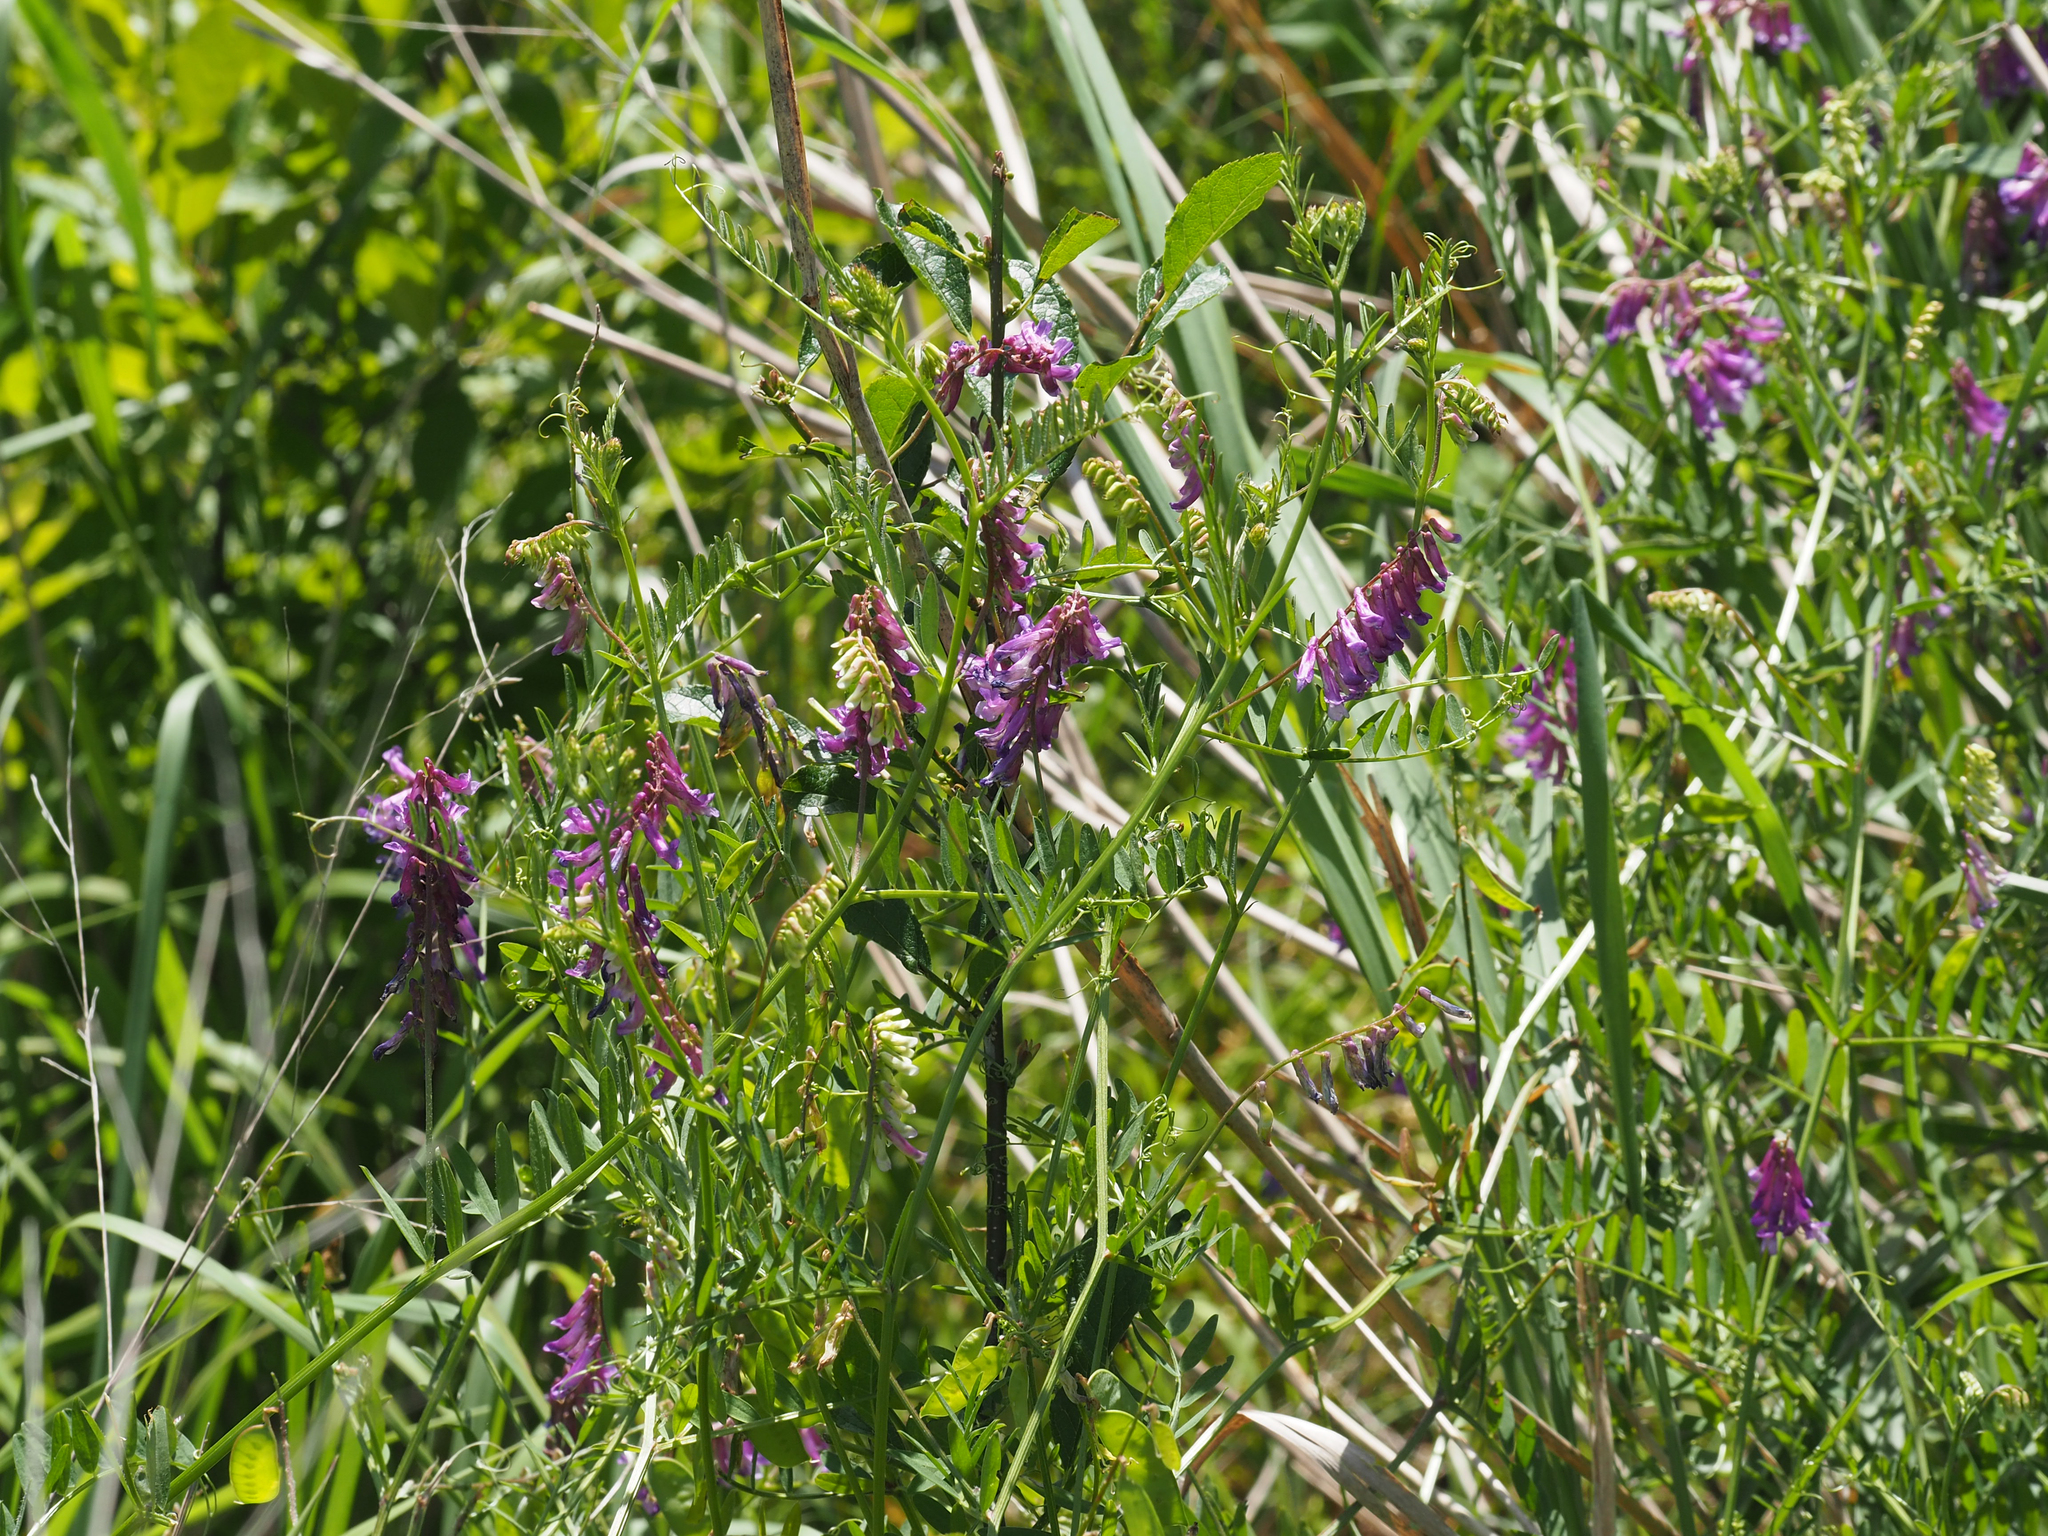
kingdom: Plantae
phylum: Tracheophyta
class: Magnoliopsida
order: Fabales
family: Fabaceae
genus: Vicia
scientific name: Vicia villosa
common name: Fodder vetch
